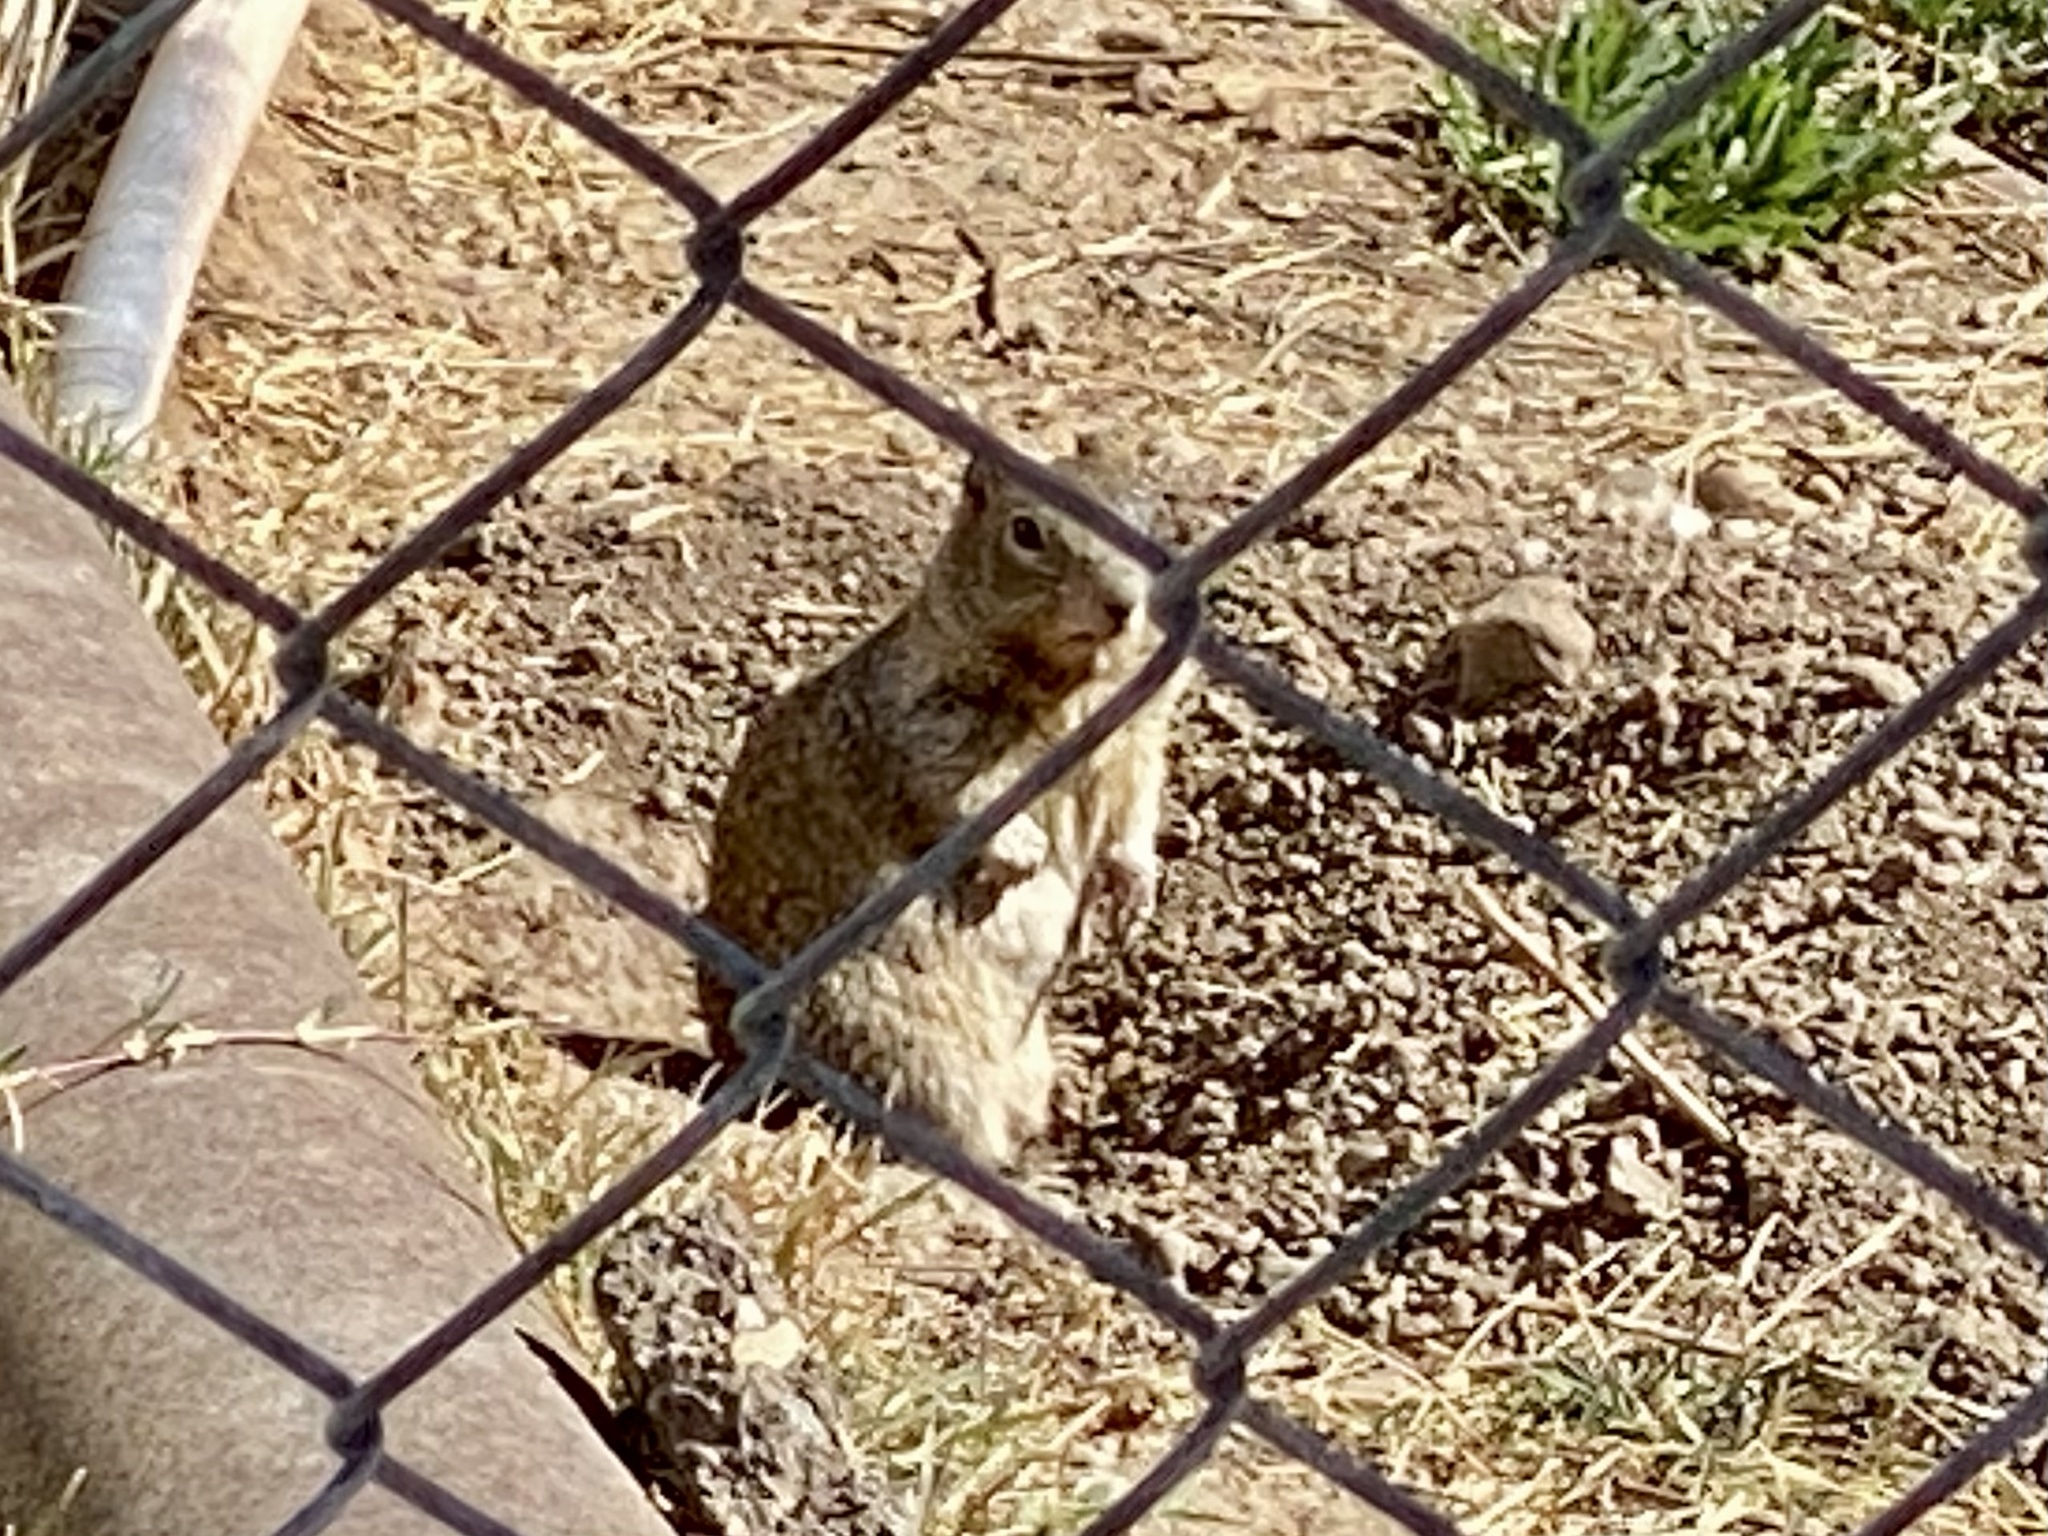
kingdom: Animalia
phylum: Chordata
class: Mammalia
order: Rodentia
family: Sciuridae
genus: Otospermophilus
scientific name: Otospermophilus variegatus
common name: Rock squirrel
